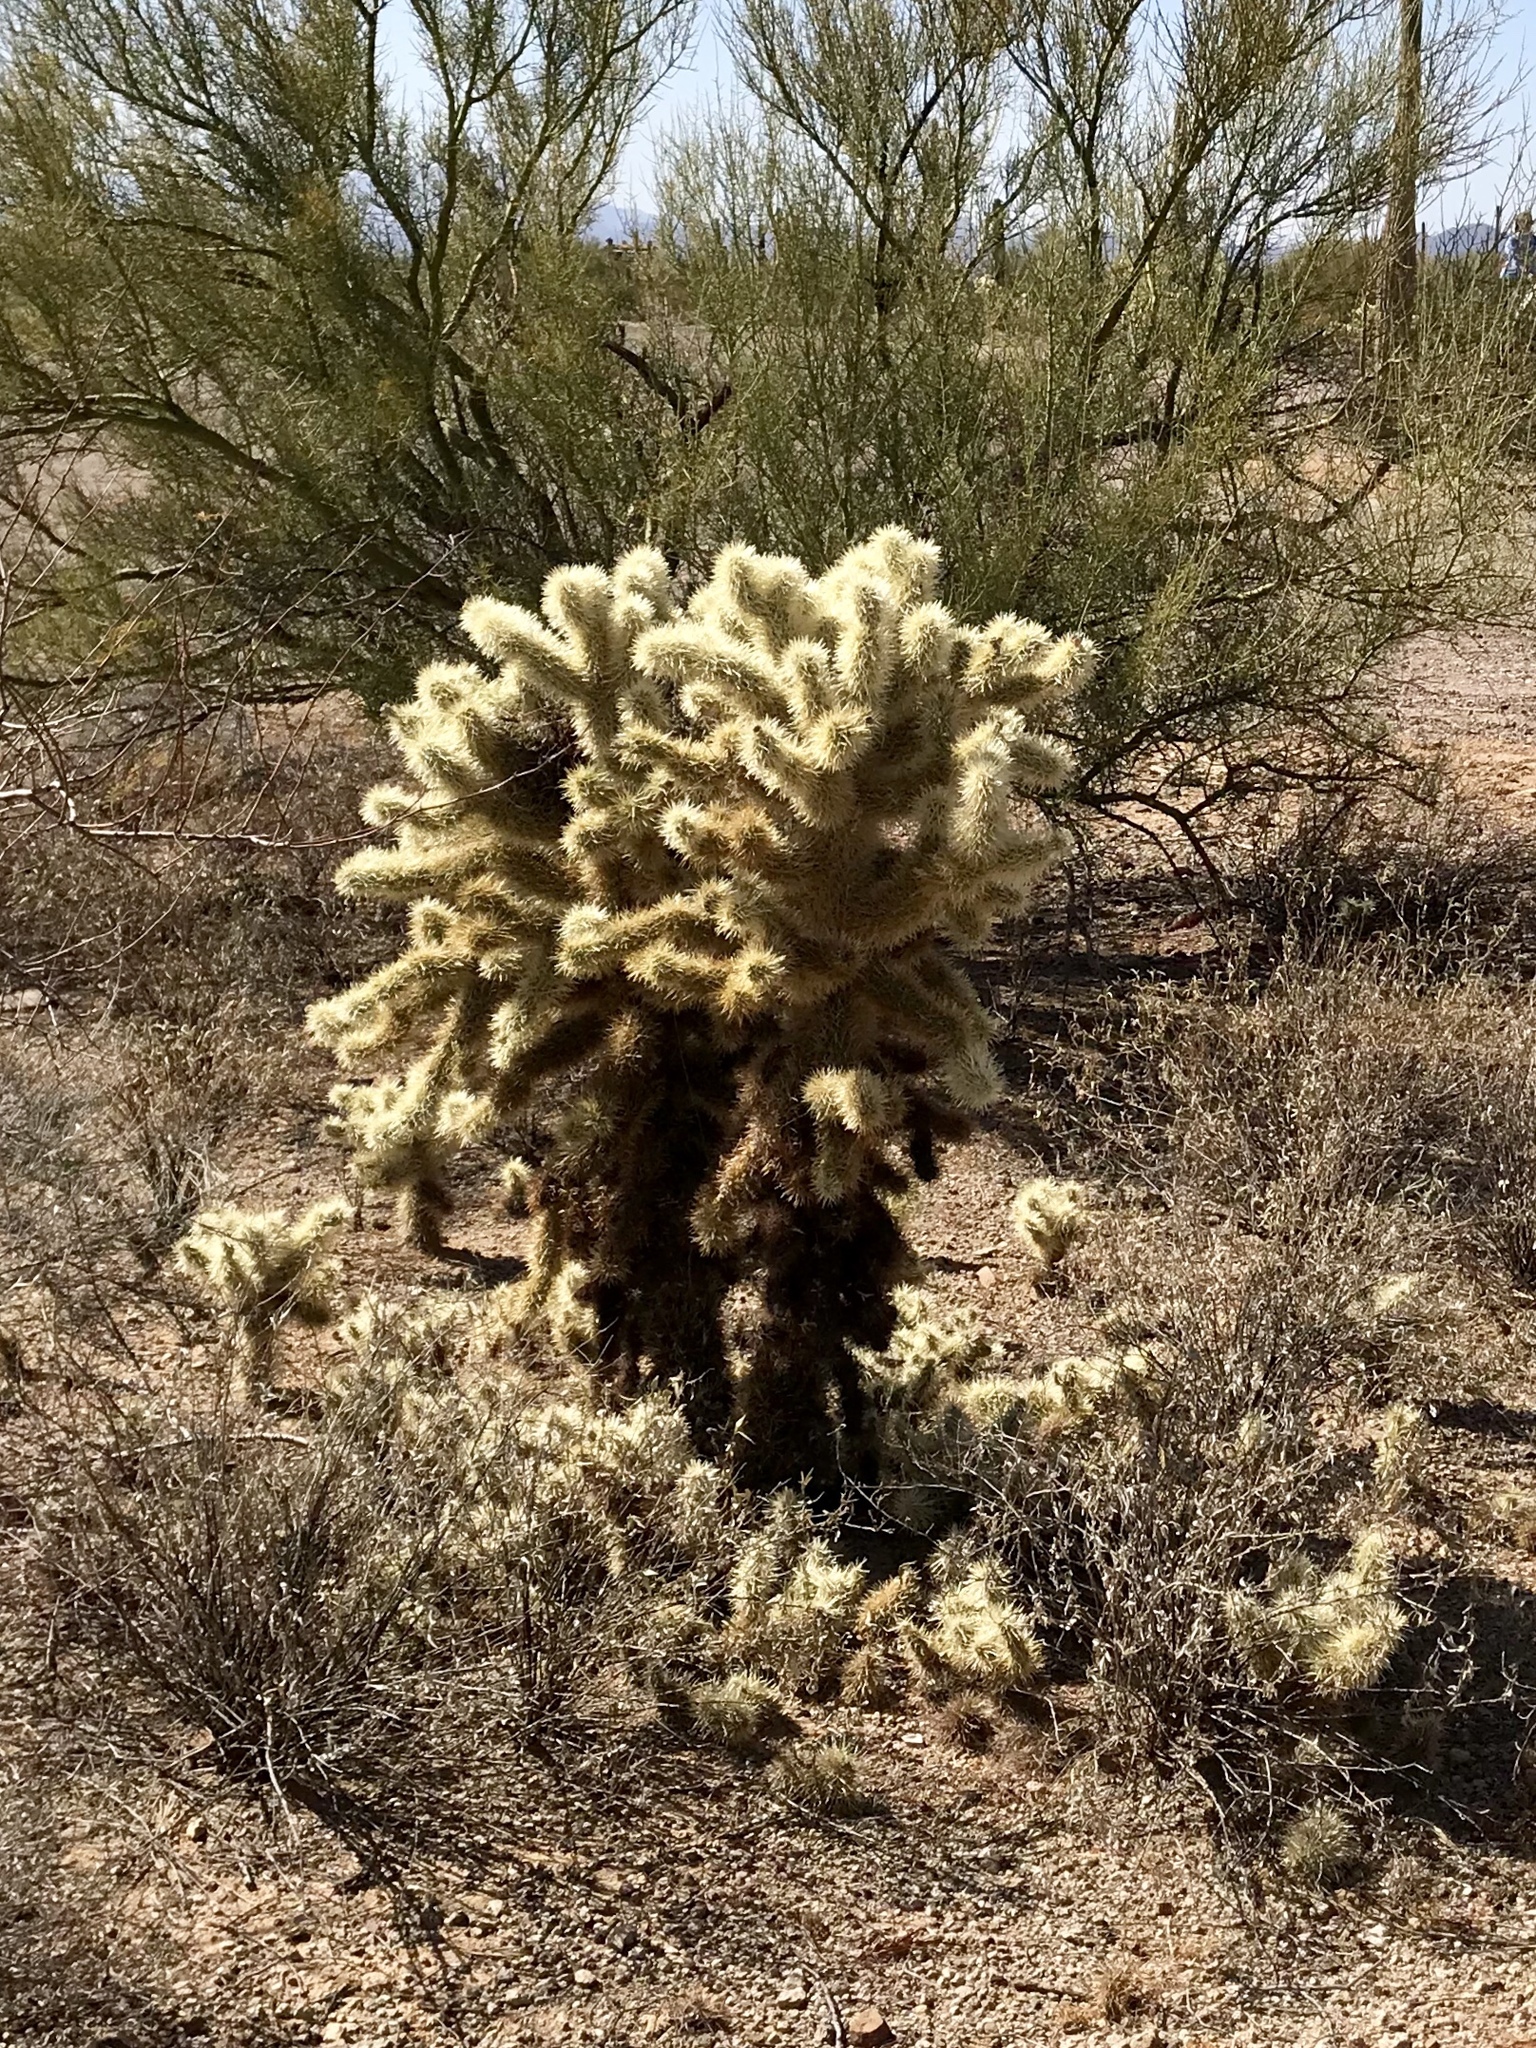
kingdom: Plantae
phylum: Tracheophyta
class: Magnoliopsida
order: Caryophyllales
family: Cactaceae
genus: Cylindropuntia
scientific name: Cylindropuntia fosbergii
